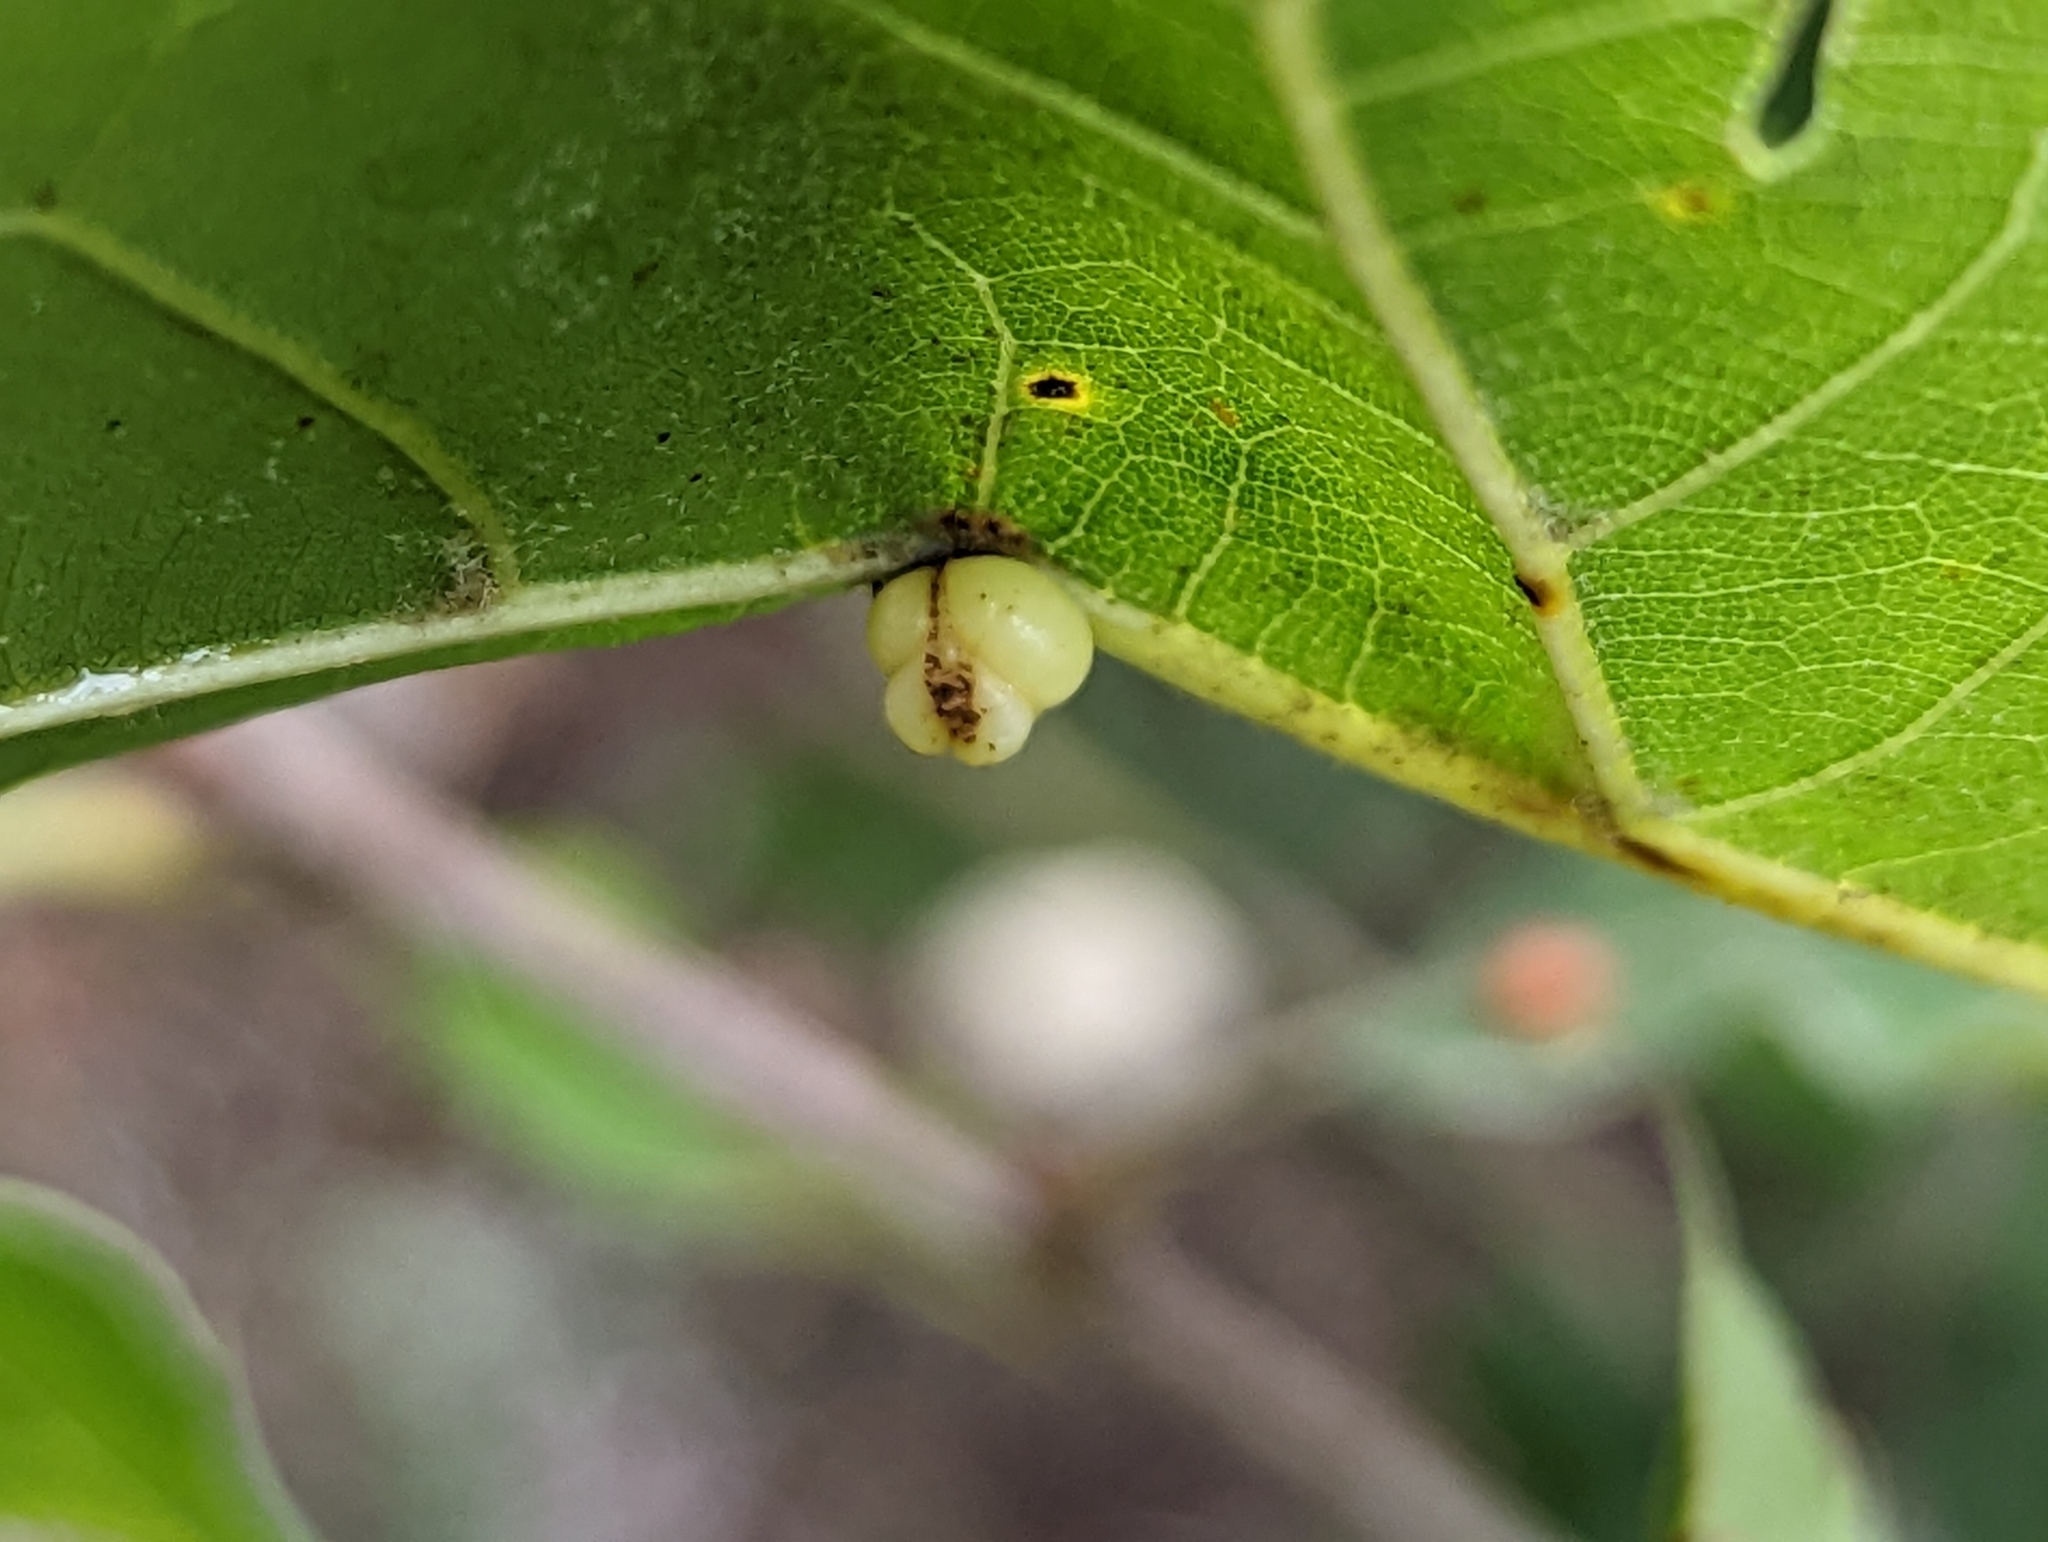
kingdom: Animalia
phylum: Arthropoda
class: Insecta
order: Hymenoptera
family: Cynipidae
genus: Kokkocynips
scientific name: Kokkocynips rileyi
